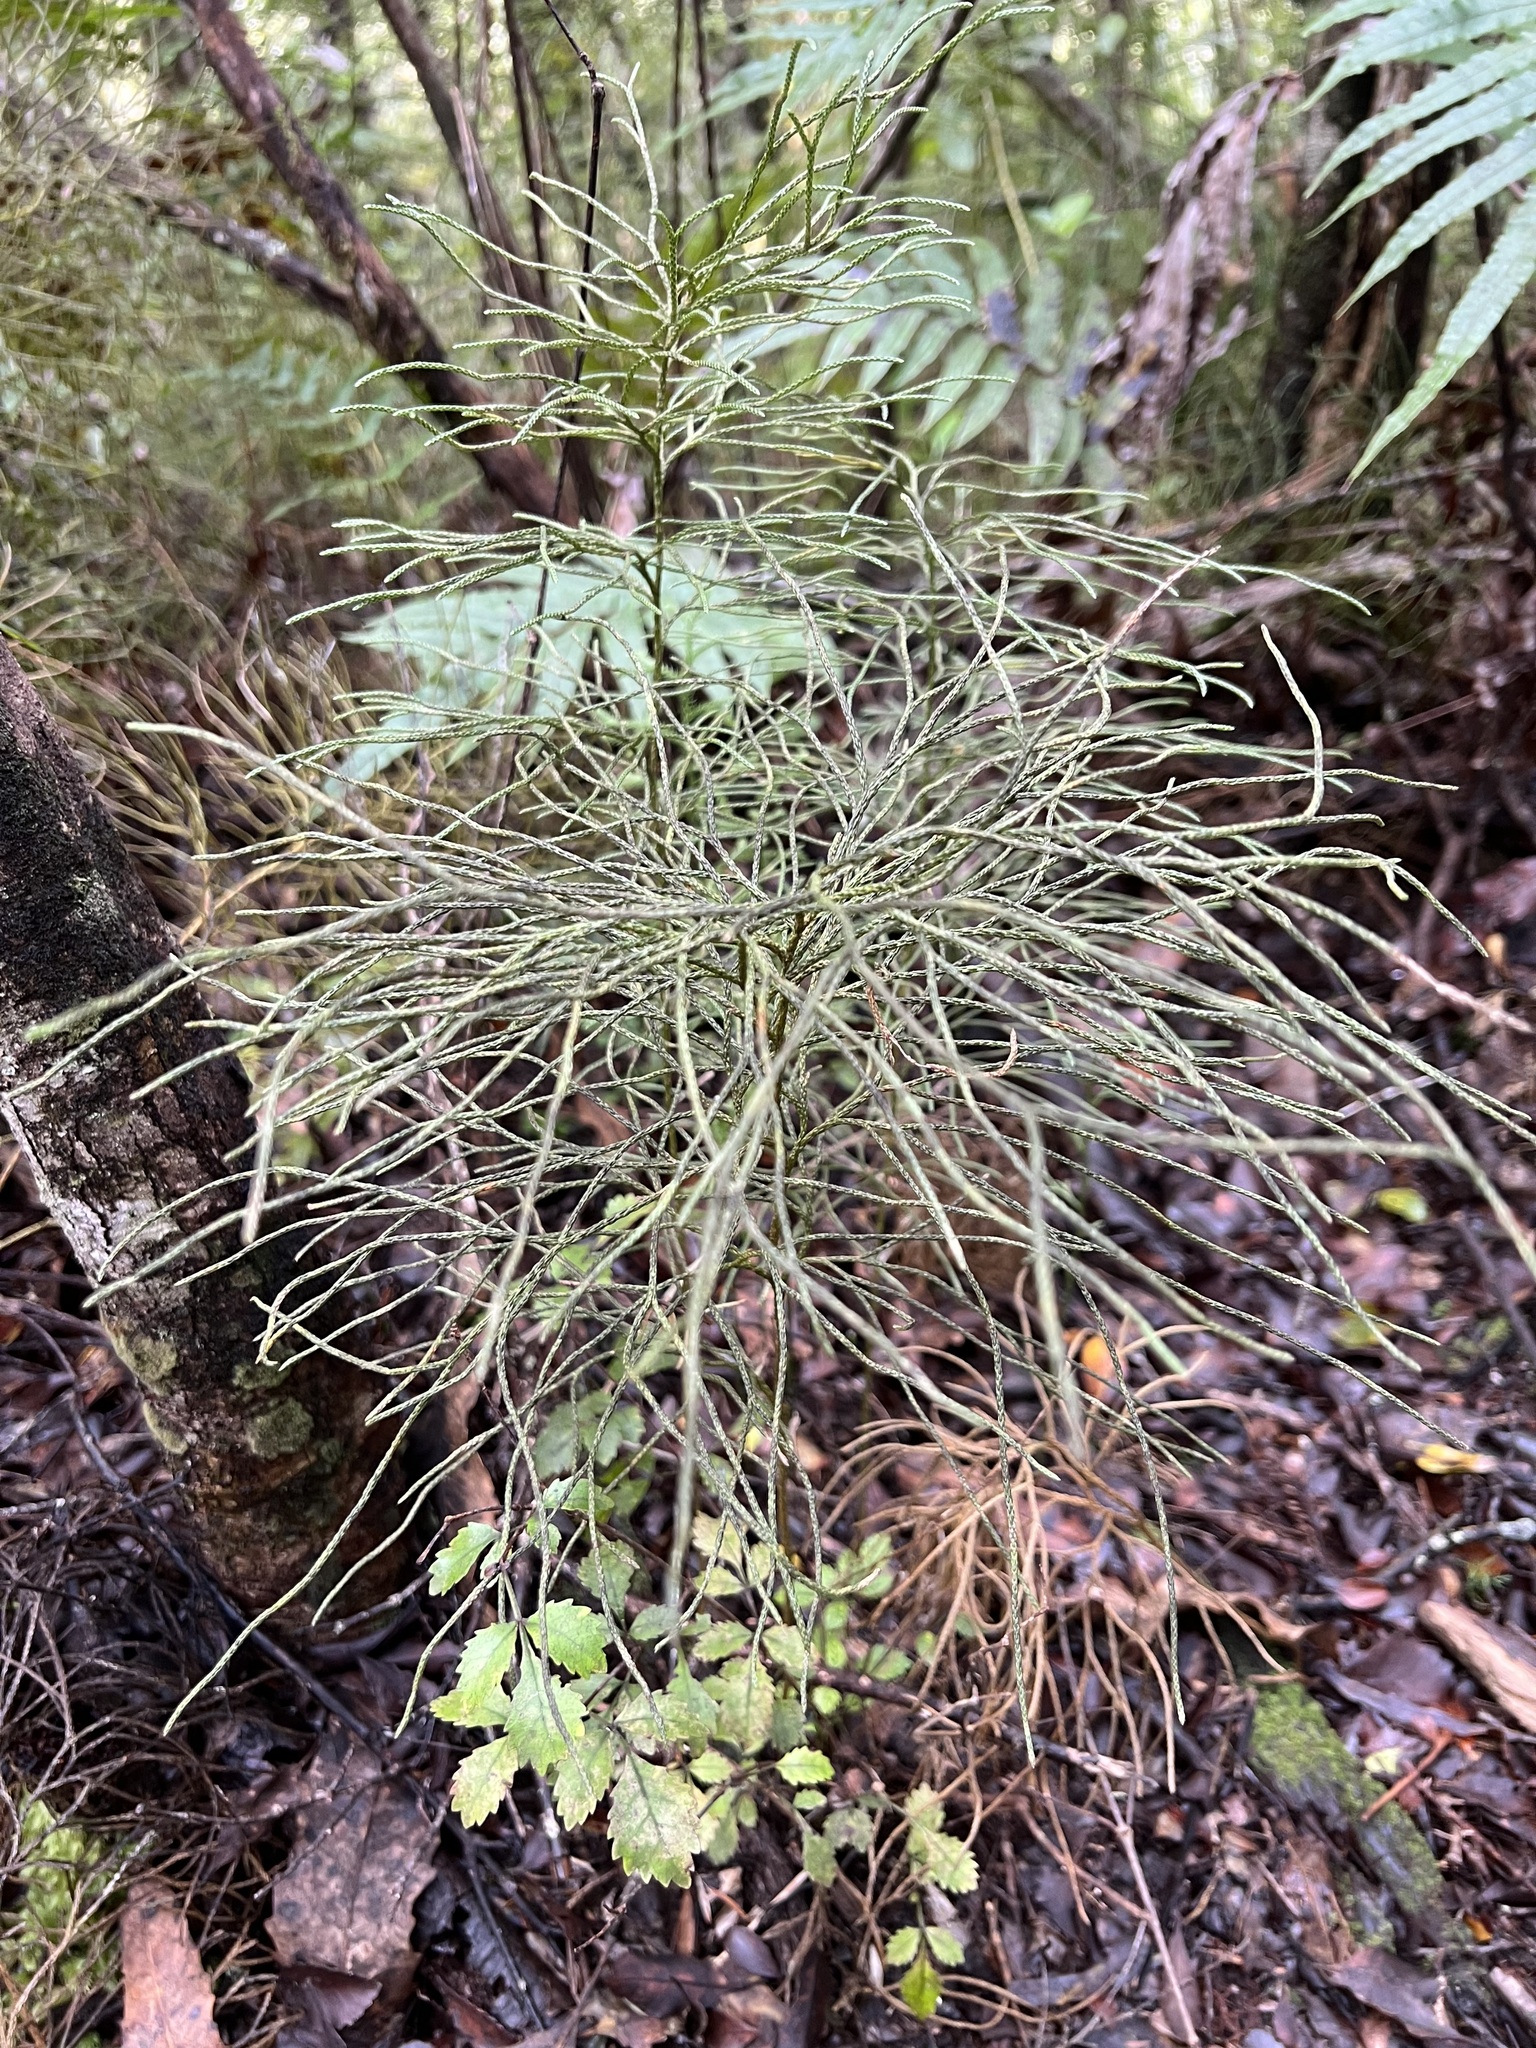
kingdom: Plantae
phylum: Tracheophyta
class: Lycopodiopsida
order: Lycopodiales
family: Lycopodiaceae
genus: Pseudolycopodium
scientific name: Pseudolycopodium densum
